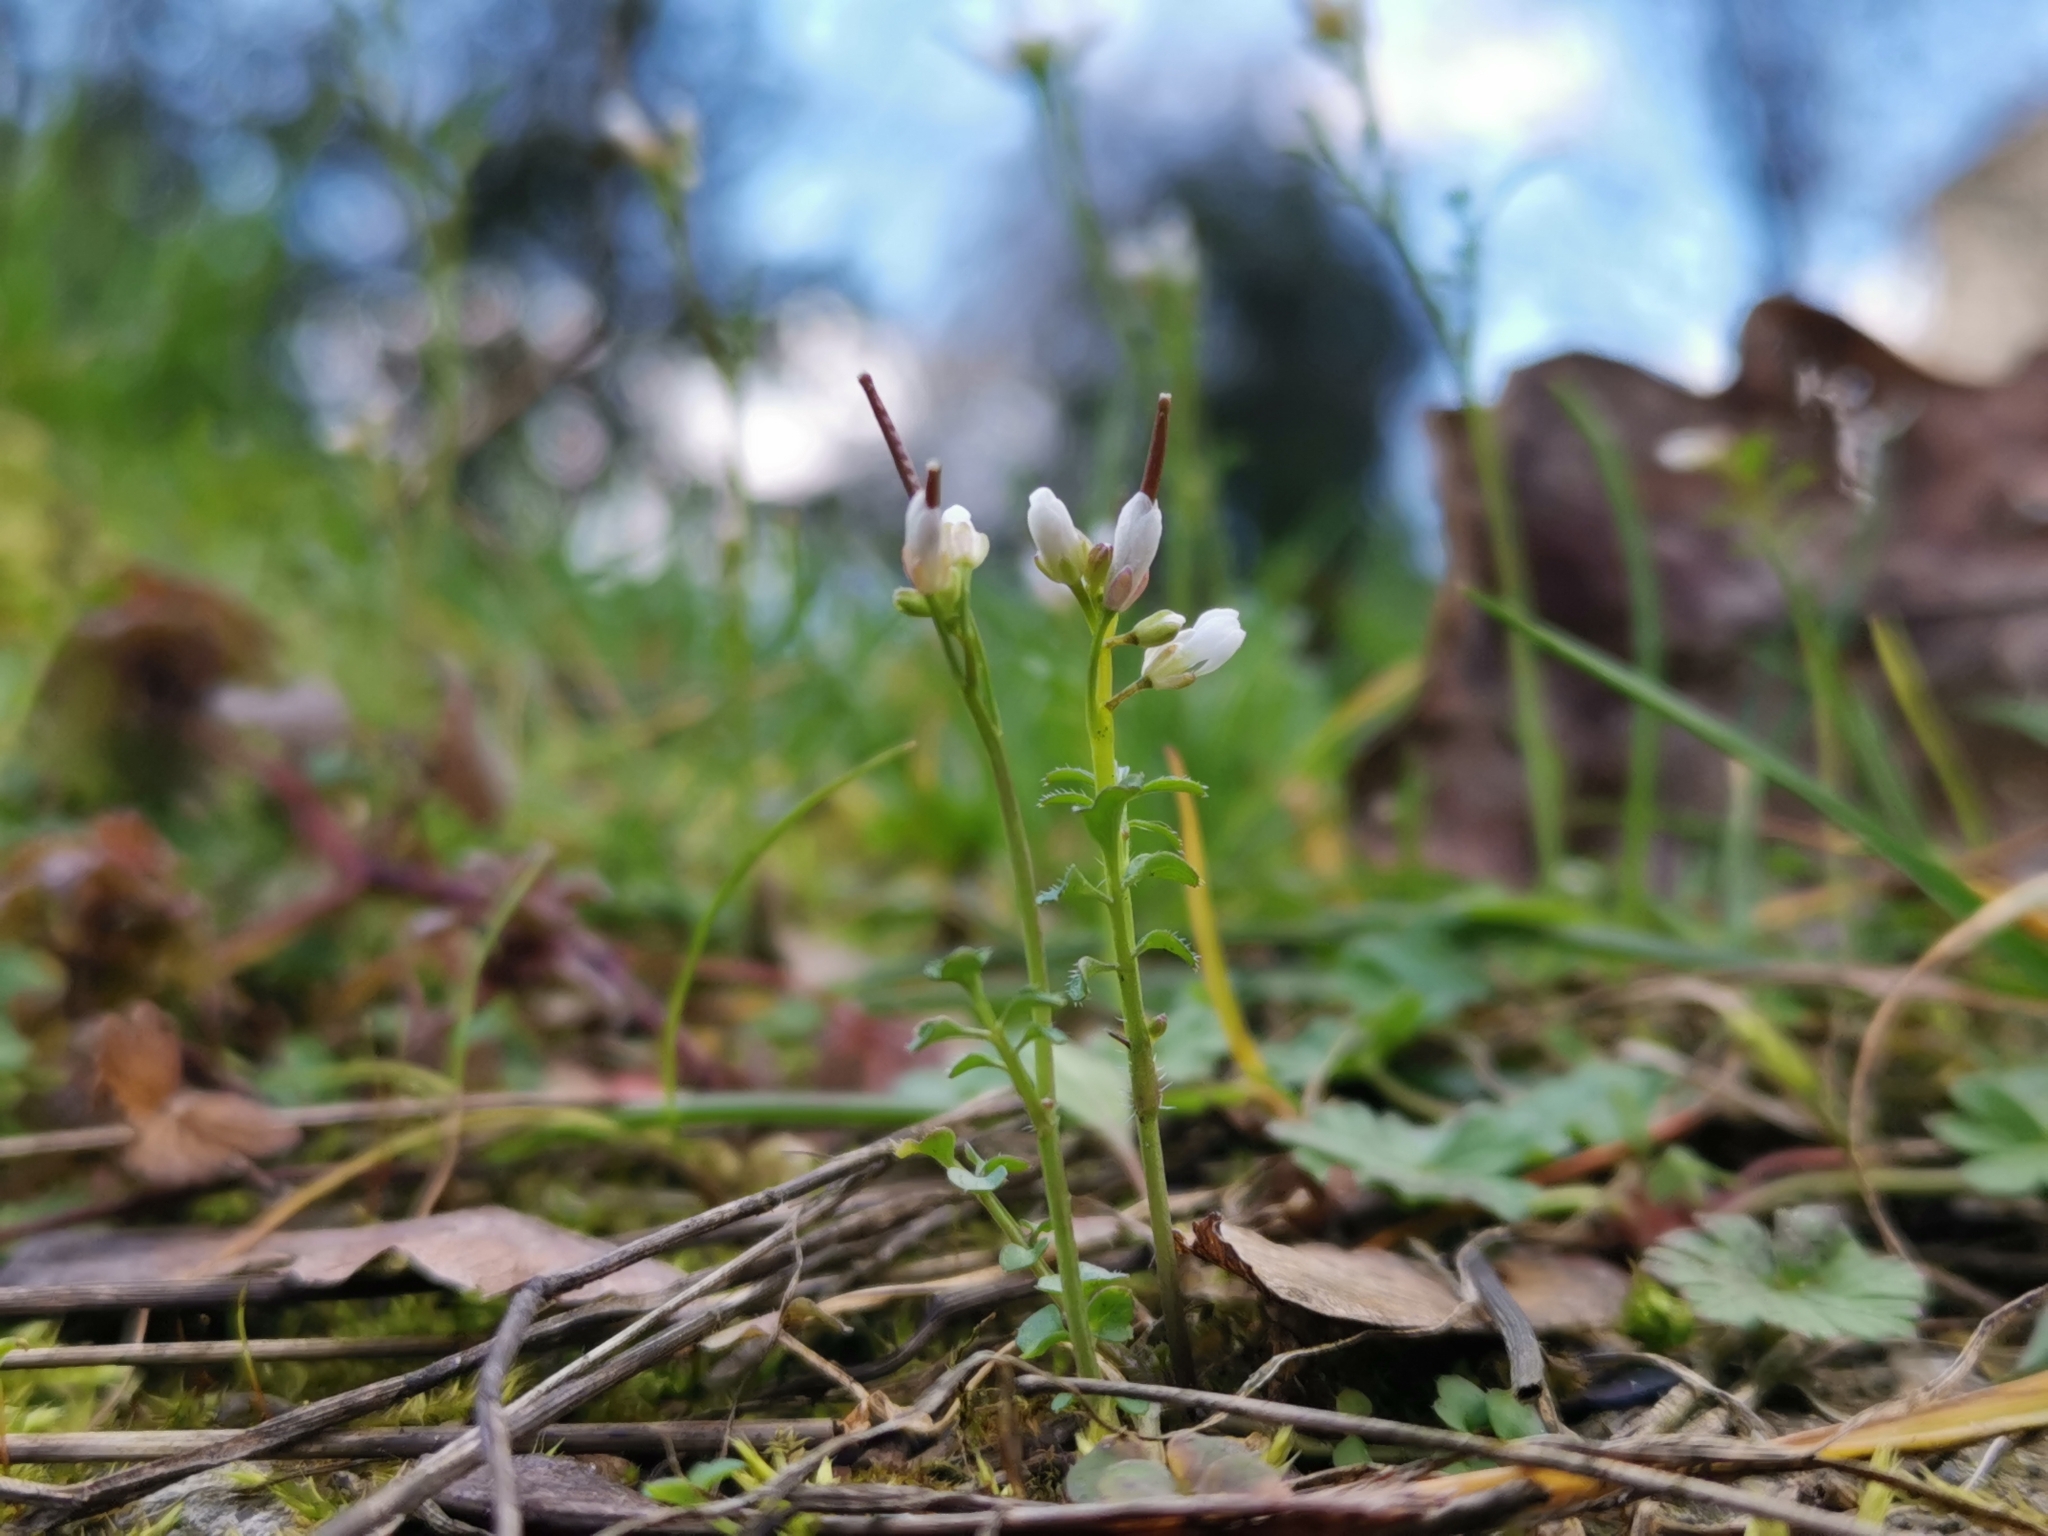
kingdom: Plantae
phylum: Tracheophyta
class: Magnoliopsida
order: Brassicales
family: Brassicaceae
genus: Cardamine
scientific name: Cardamine hirsuta
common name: Hairy bittercress
